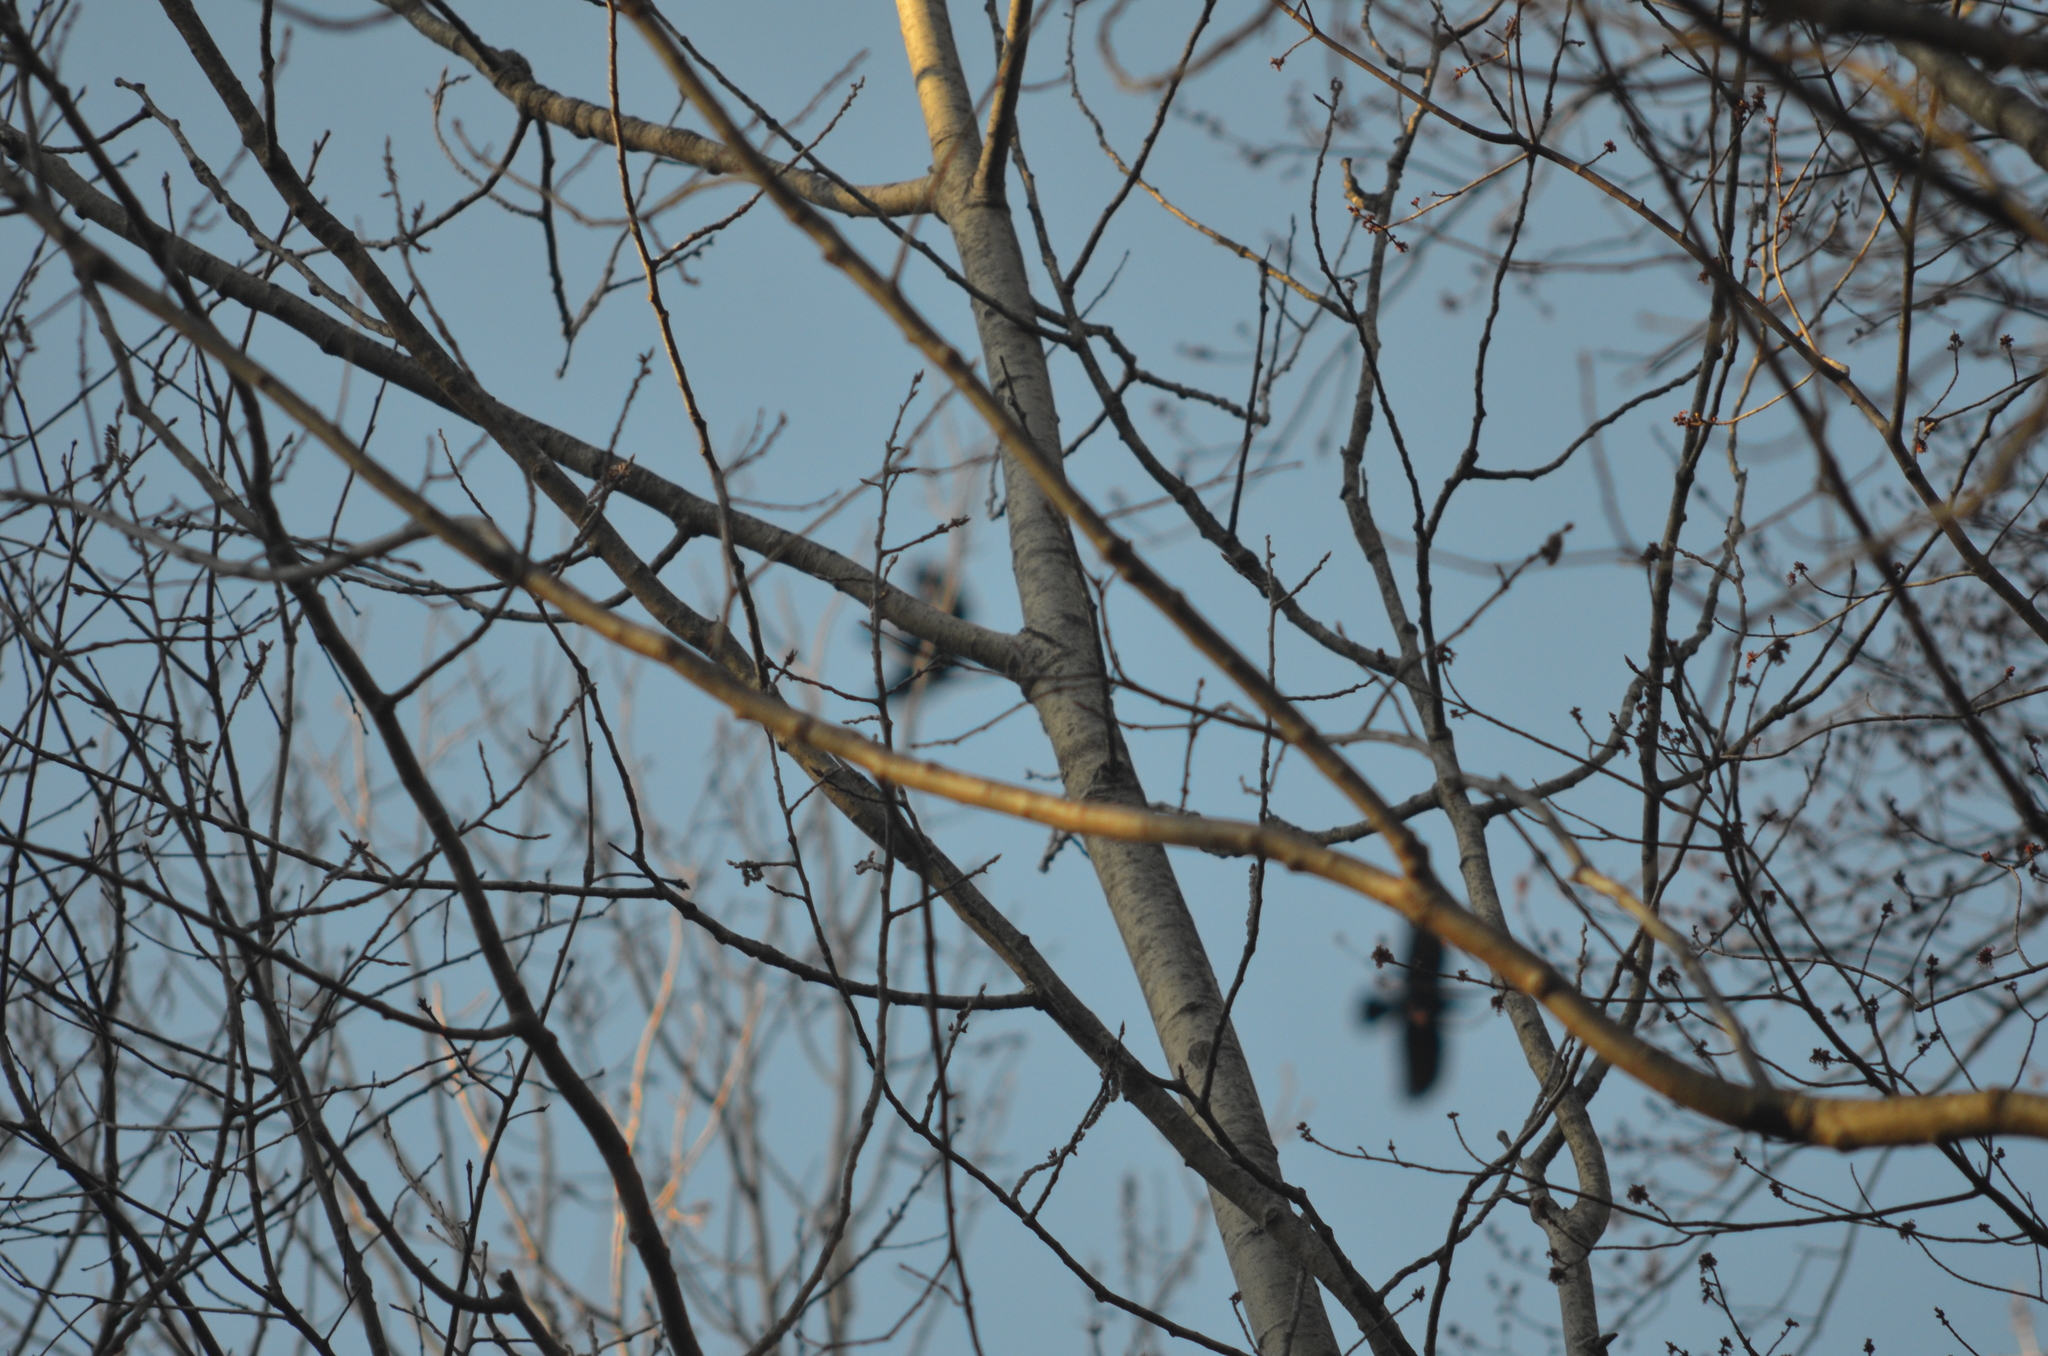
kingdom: Animalia
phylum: Chordata
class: Aves
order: Passeriformes
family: Corvidae
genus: Corvus
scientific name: Corvus brachyrhynchos
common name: American crow
